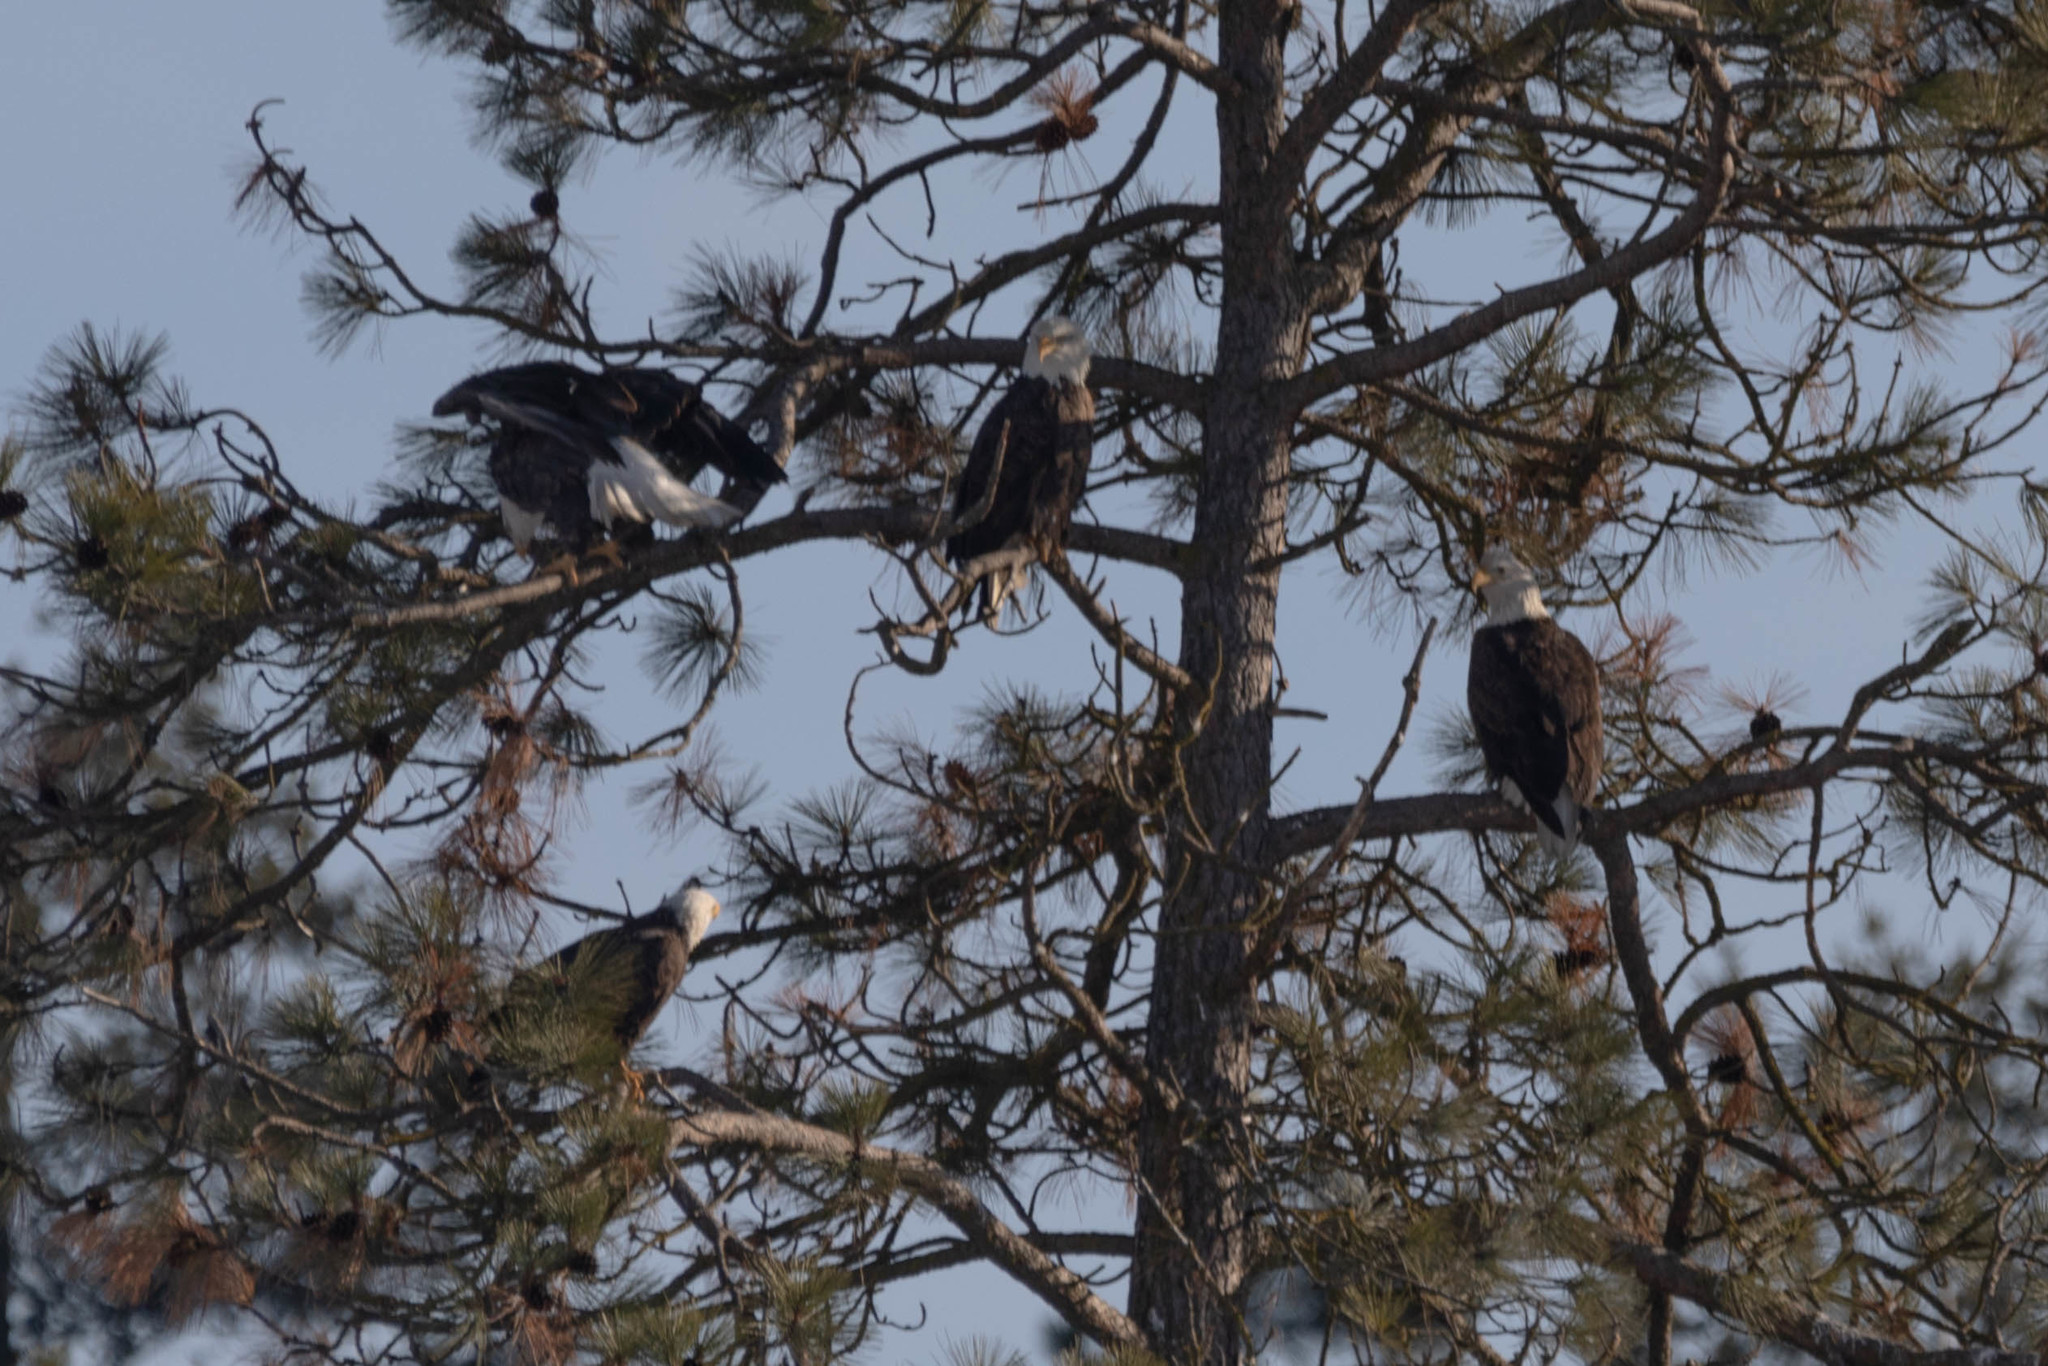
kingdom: Animalia
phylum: Chordata
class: Aves
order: Accipitriformes
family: Accipitridae
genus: Haliaeetus
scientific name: Haliaeetus leucocephalus
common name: Bald eagle
